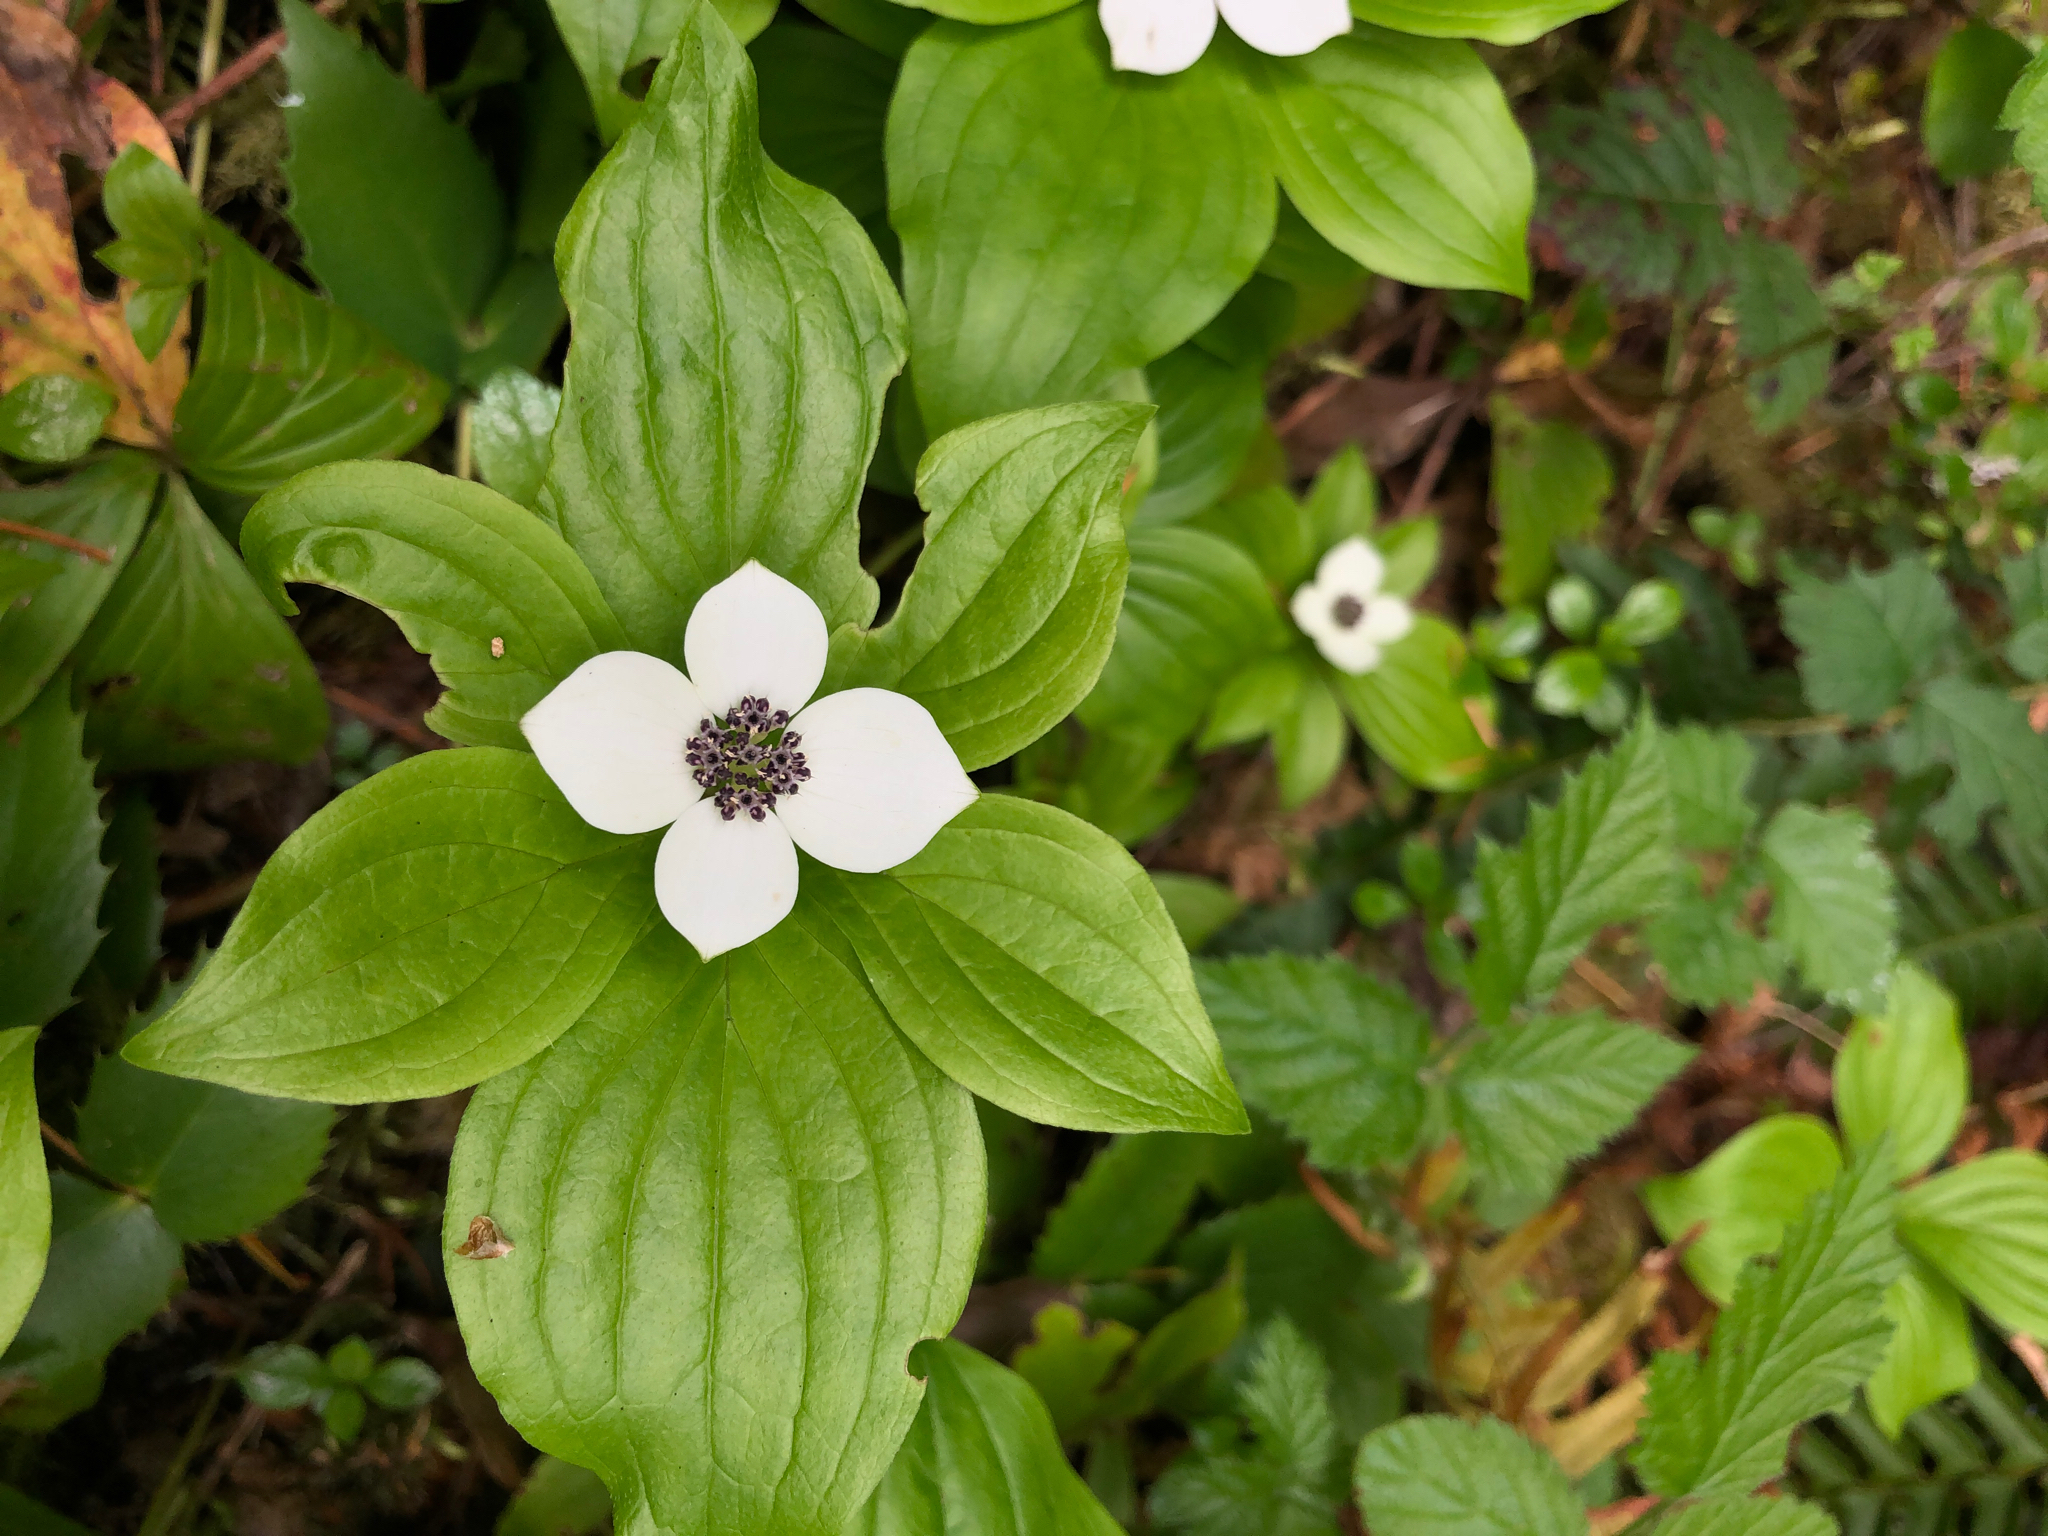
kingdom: Plantae
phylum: Tracheophyta
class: Magnoliopsida
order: Cornales
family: Cornaceae
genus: Cornus
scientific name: Cornus unalaschkensis
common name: Alaska bunchberry
